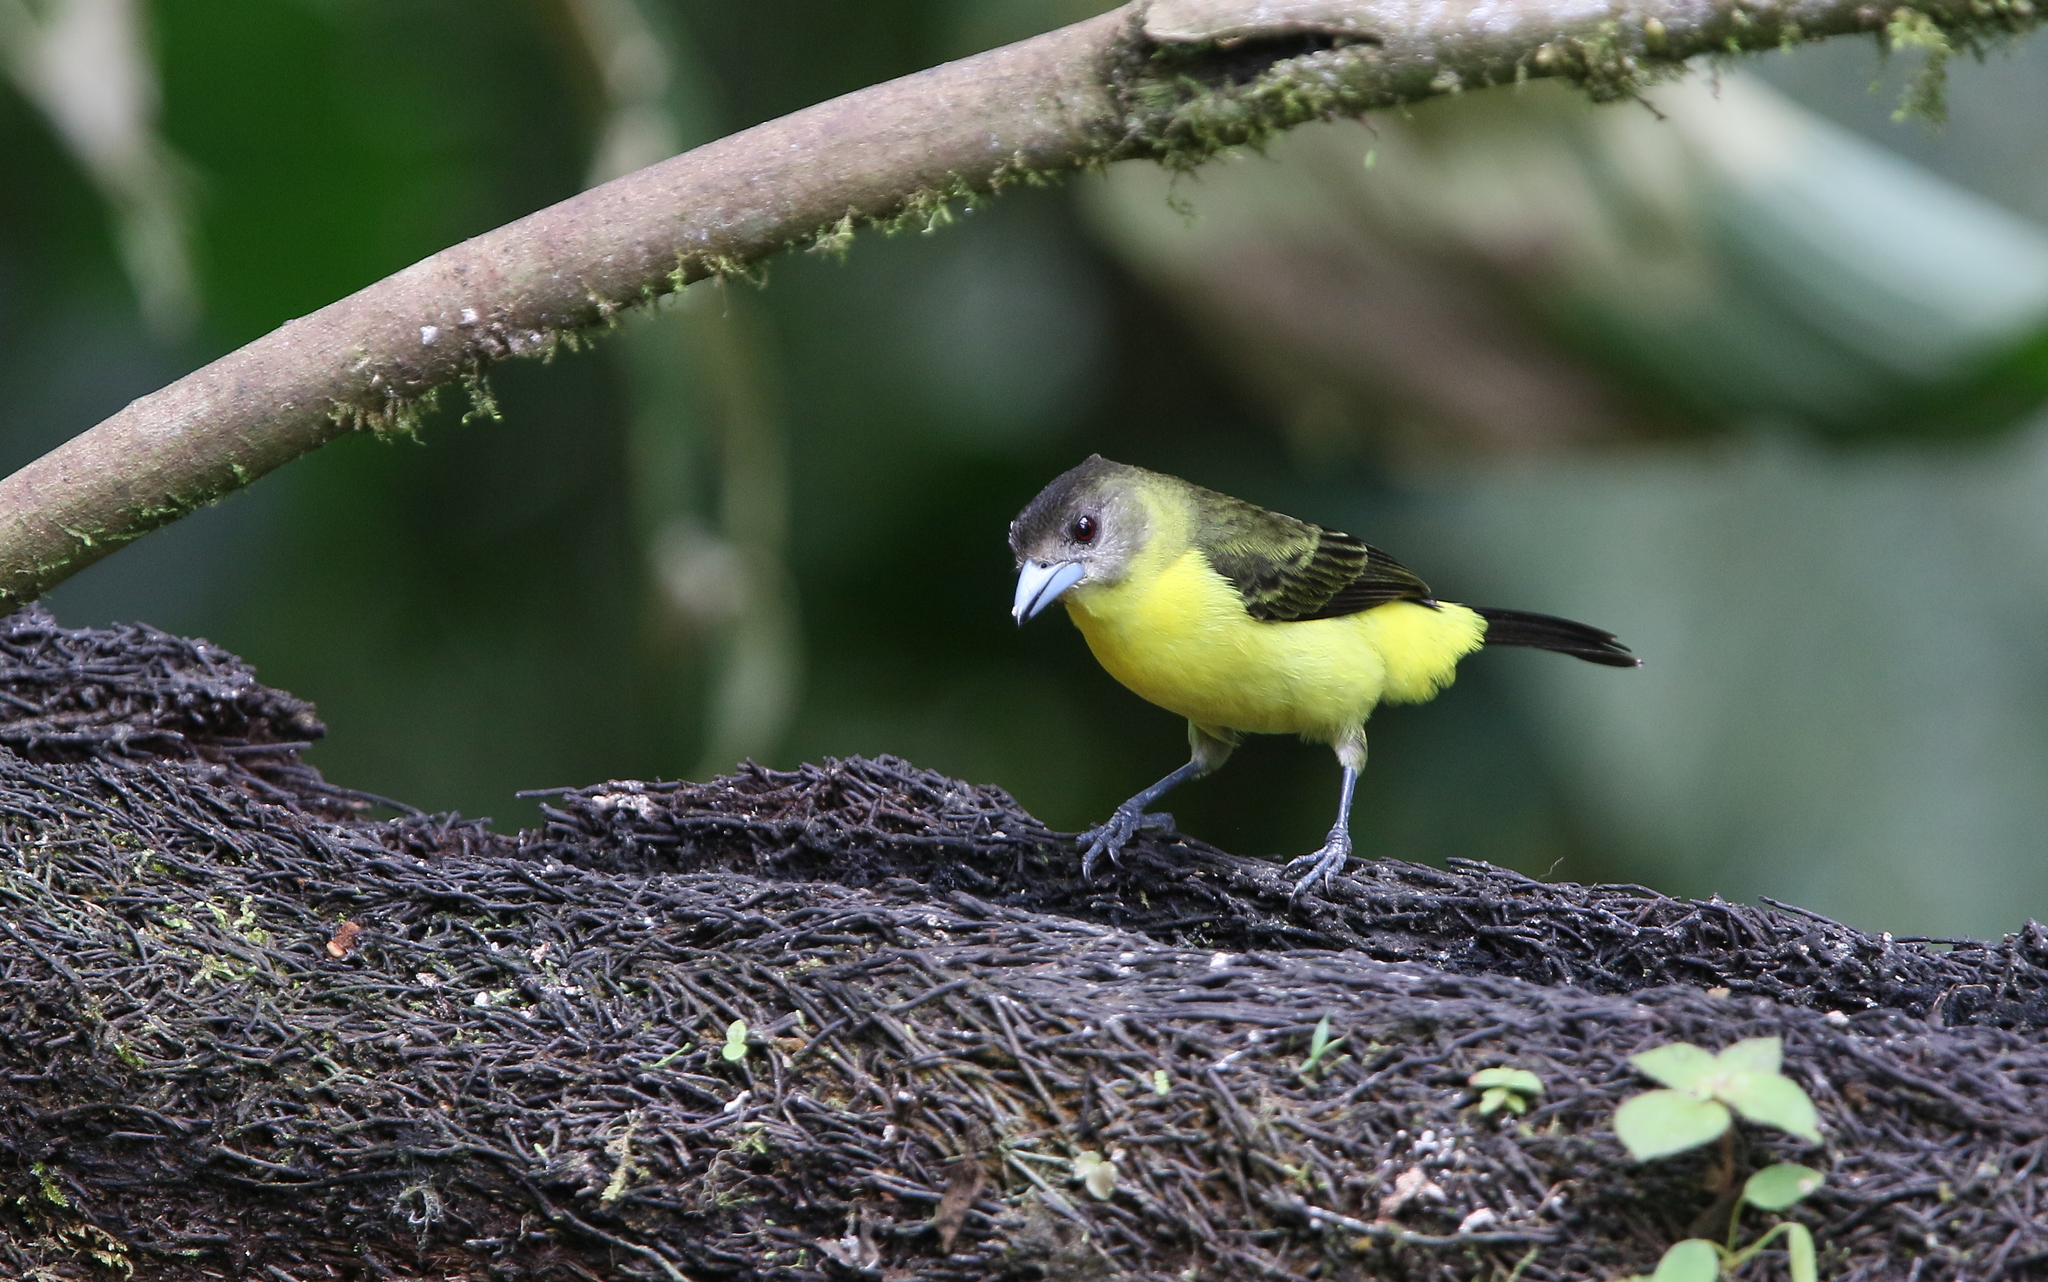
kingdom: Animalia
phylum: Chordata
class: Aves
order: Passeriformes
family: Thraupidae
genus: Ramphocelus
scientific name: Ramphocelus flammigerus
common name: Flame-rumped tanager
